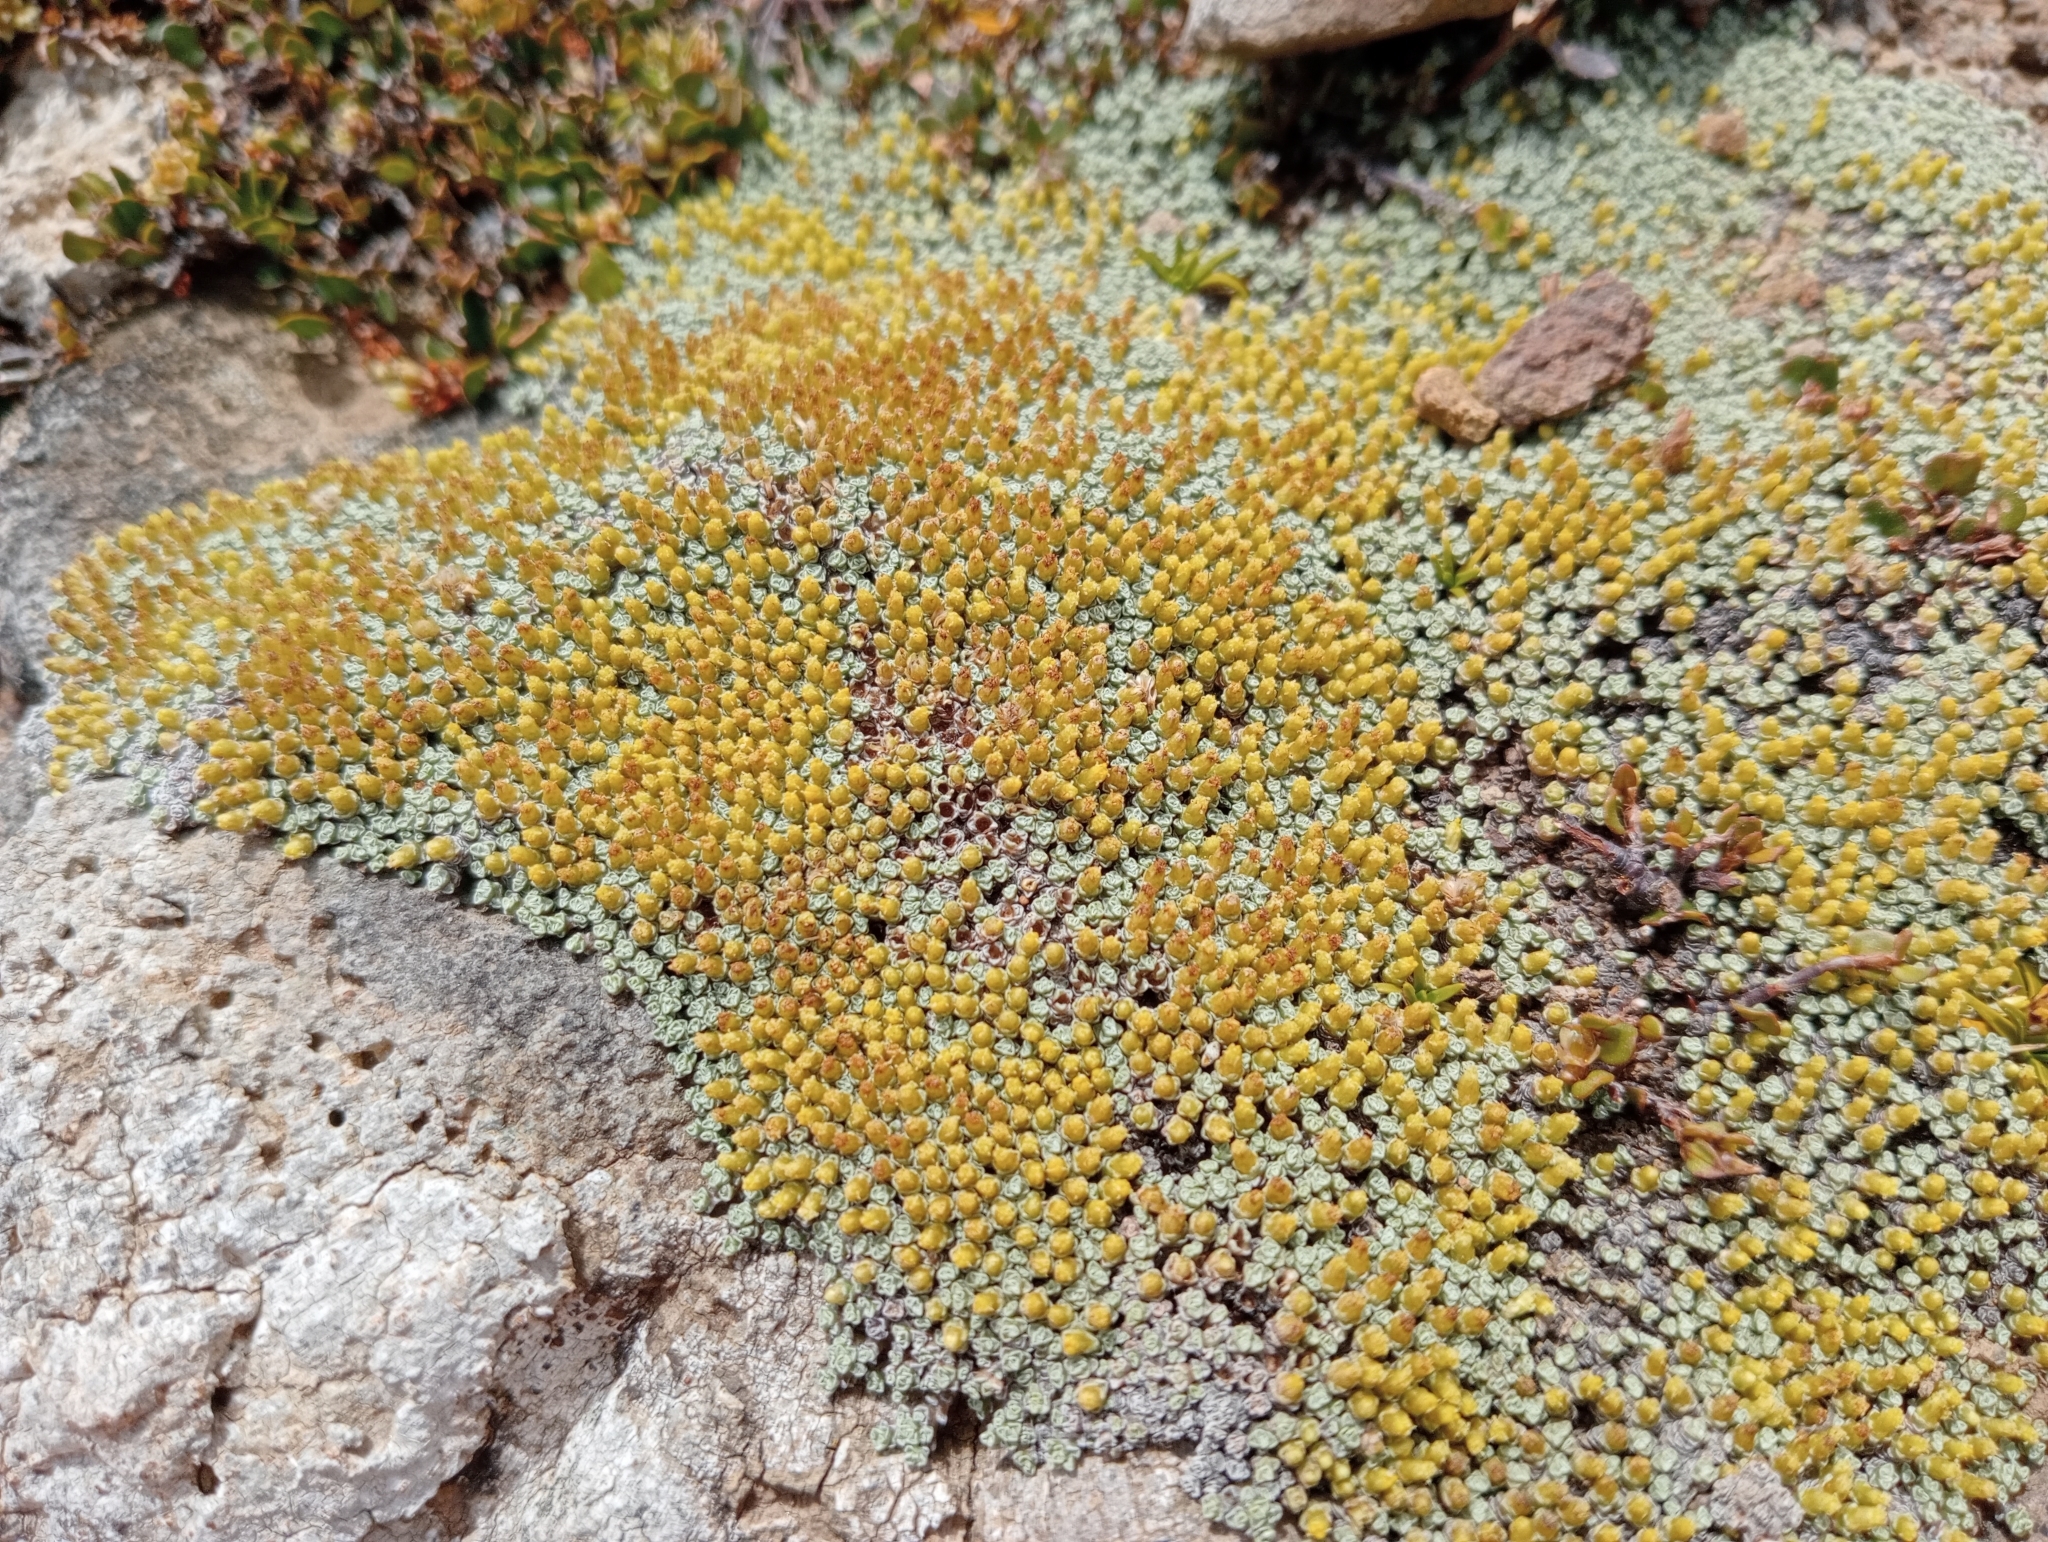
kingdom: Plantae
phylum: Tracheophyta
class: Magnoliopsida
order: Asterales
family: Asteraceae
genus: Raoulia
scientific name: Raoulia australis
